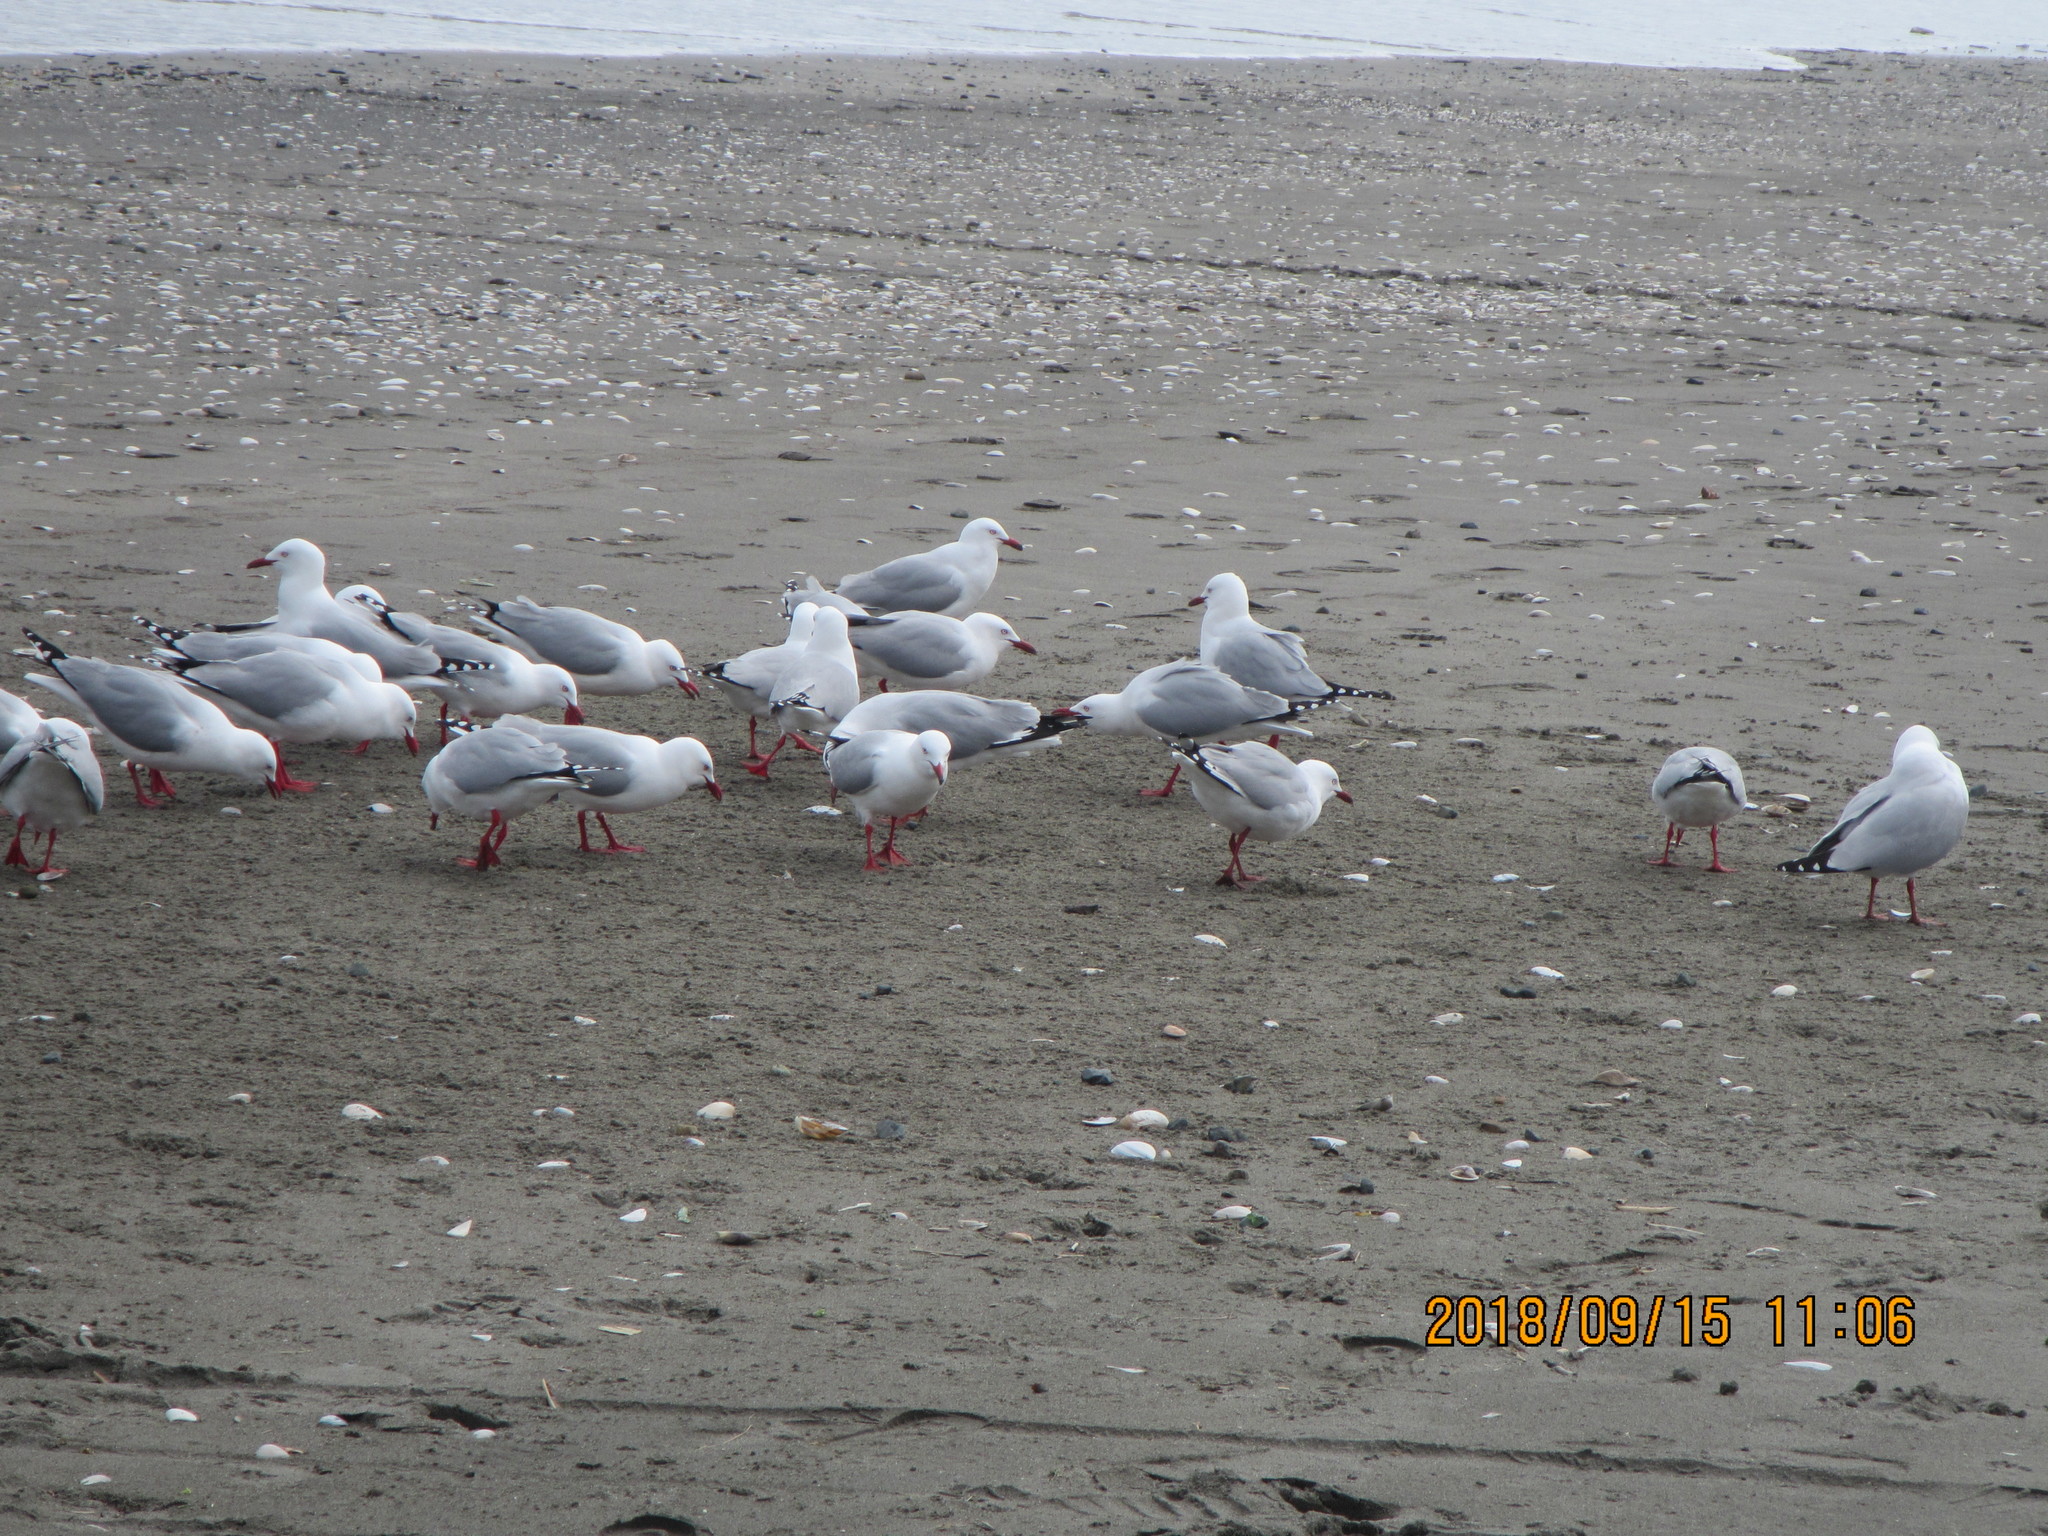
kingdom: Animalia
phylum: Chordata
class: Aves
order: Charadriiformes
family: Laridae
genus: Chroicocephalus
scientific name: Chroicocephalus novaehollandiae
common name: Silver gull
